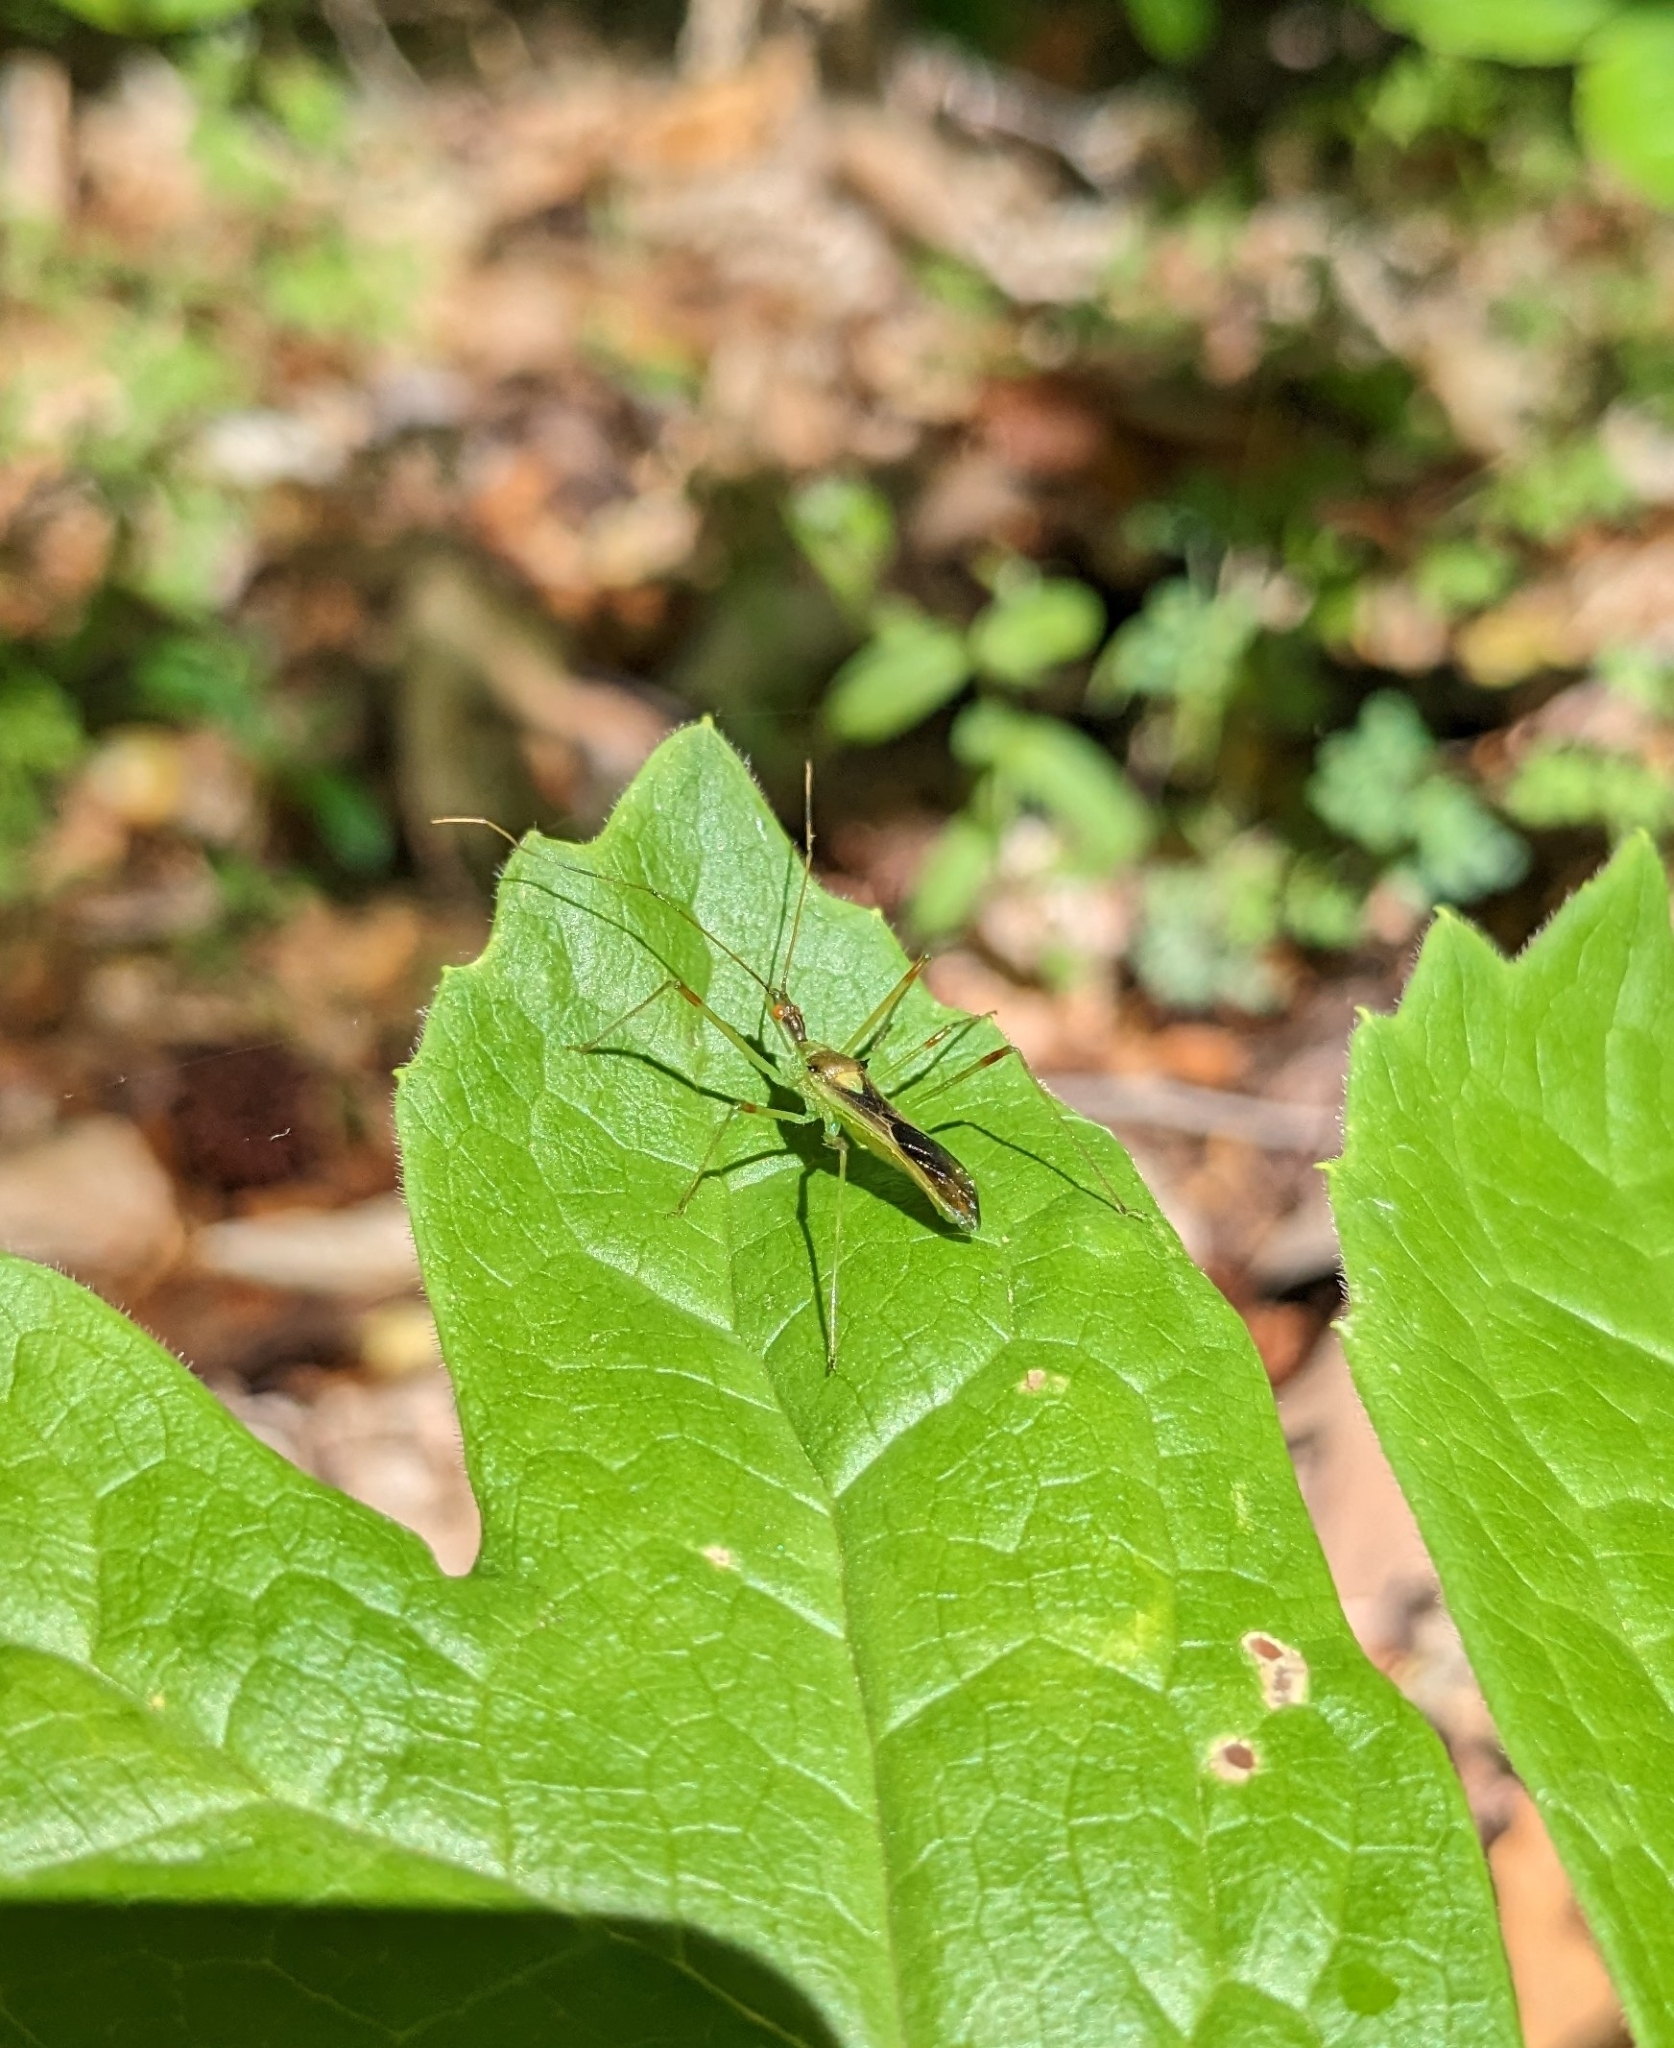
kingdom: Animalia
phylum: Arthropoda
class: Insecta
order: Hemiptera
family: Reduviidae
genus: Zelus
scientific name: Zelus luridus
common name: Pale green assassin bug
